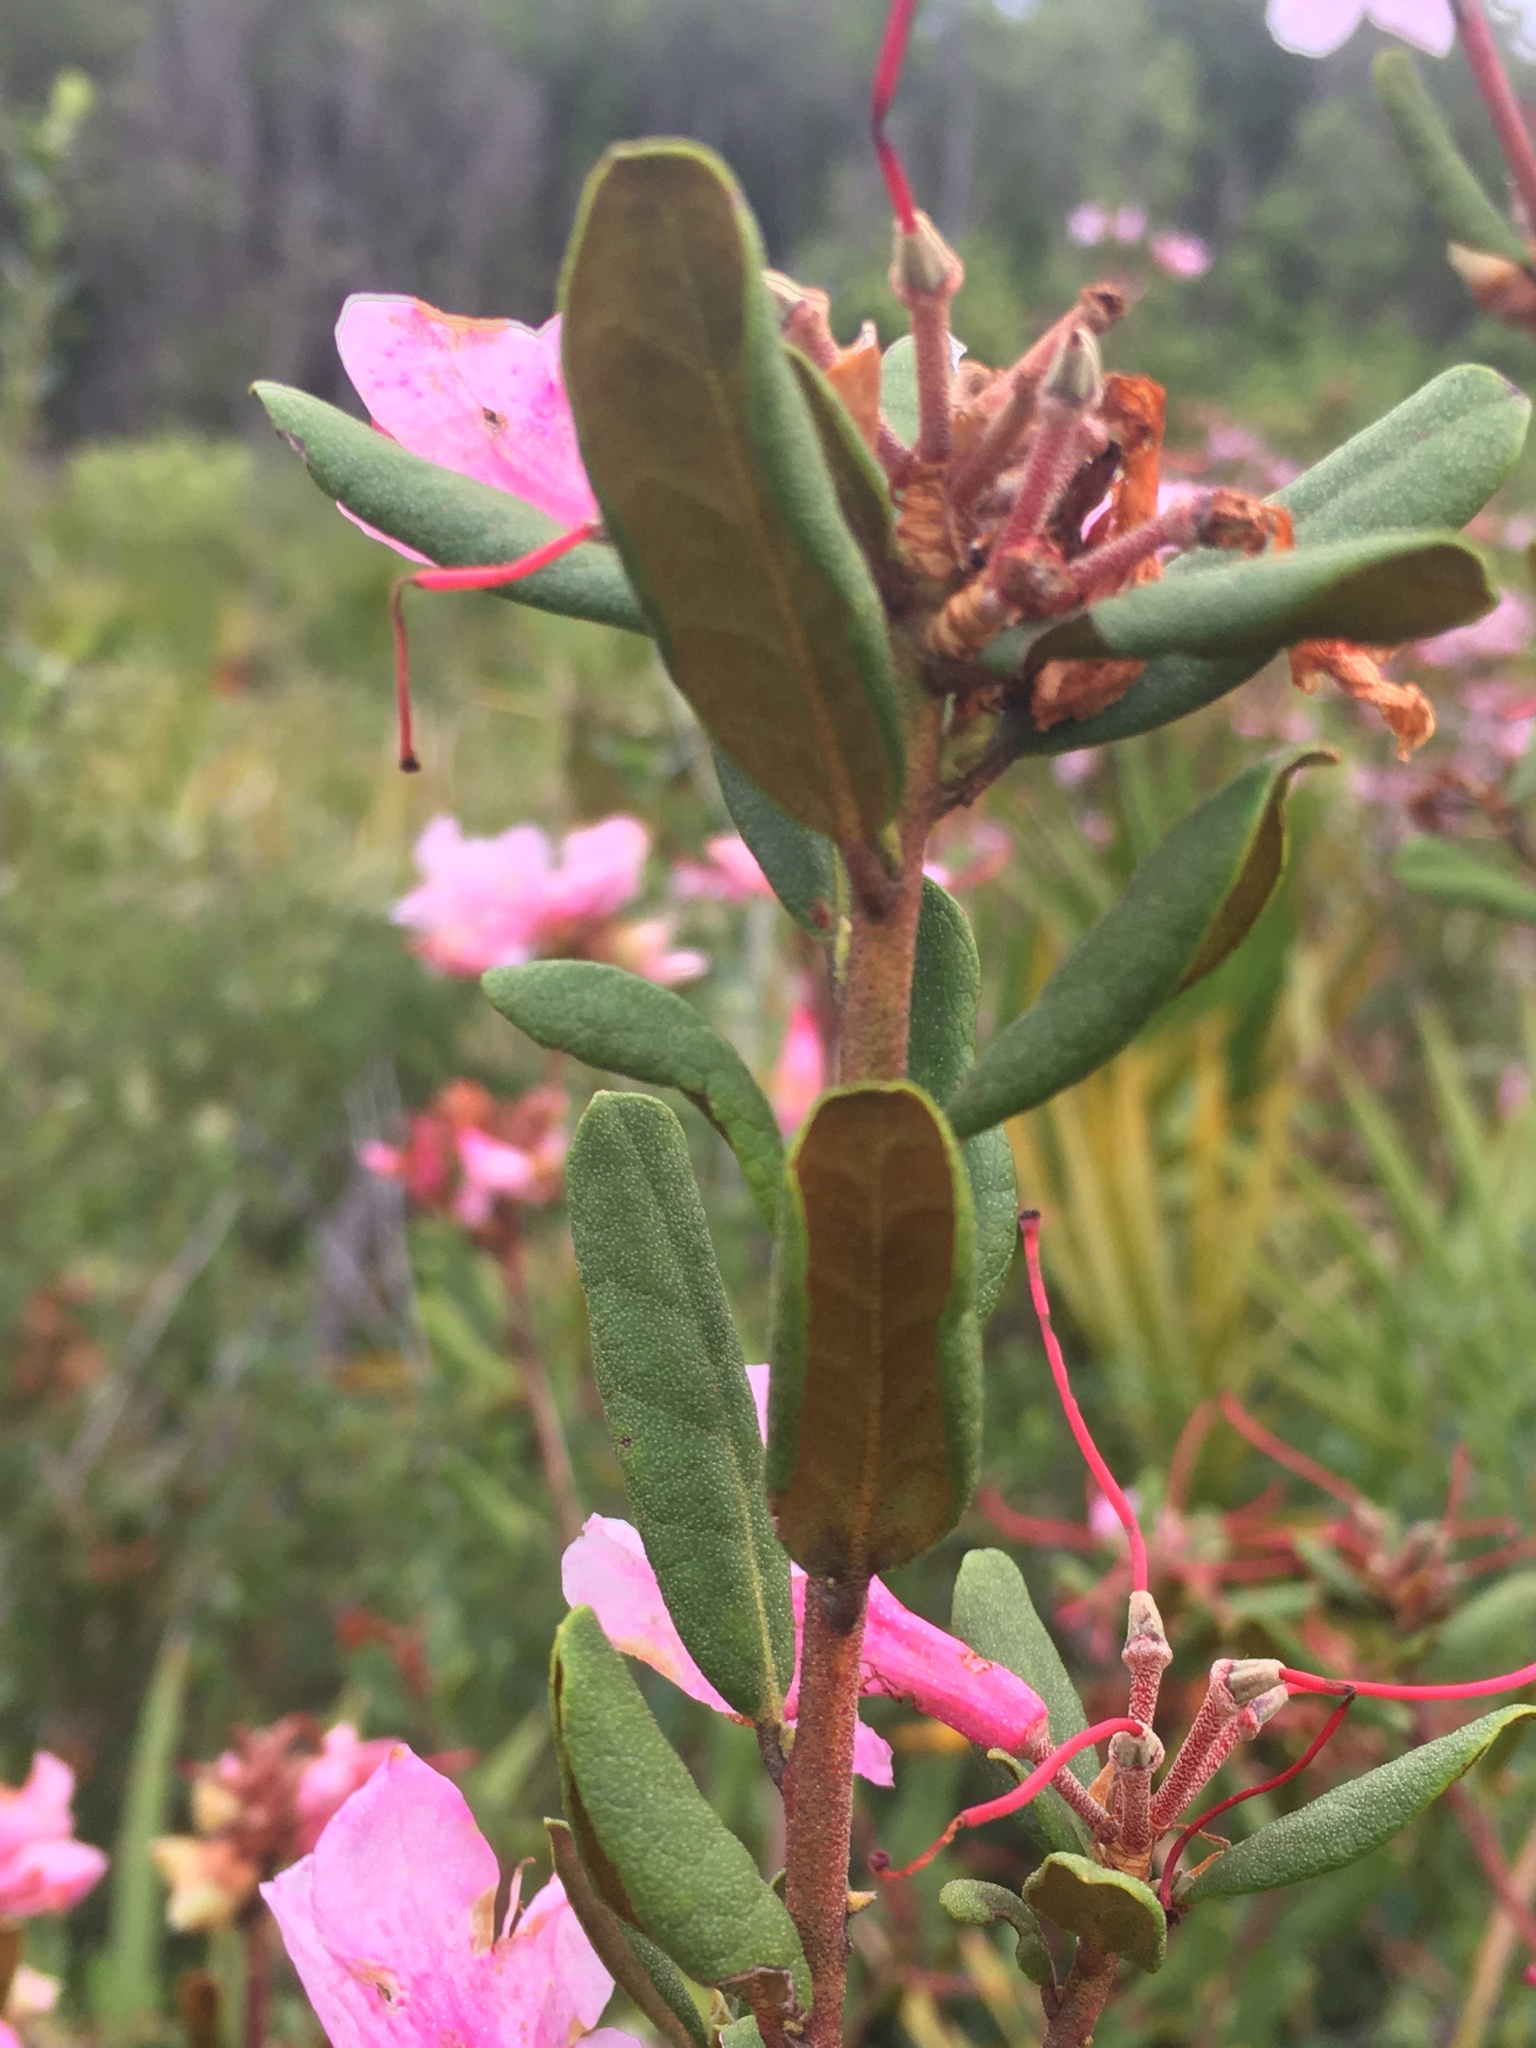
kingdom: Plantae
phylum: Tracheophyta
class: Magnoliopsida
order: Ericales
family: Ericaceae
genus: Rhododendron
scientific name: Rhododendron minus
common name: Piedmont rhododendron
